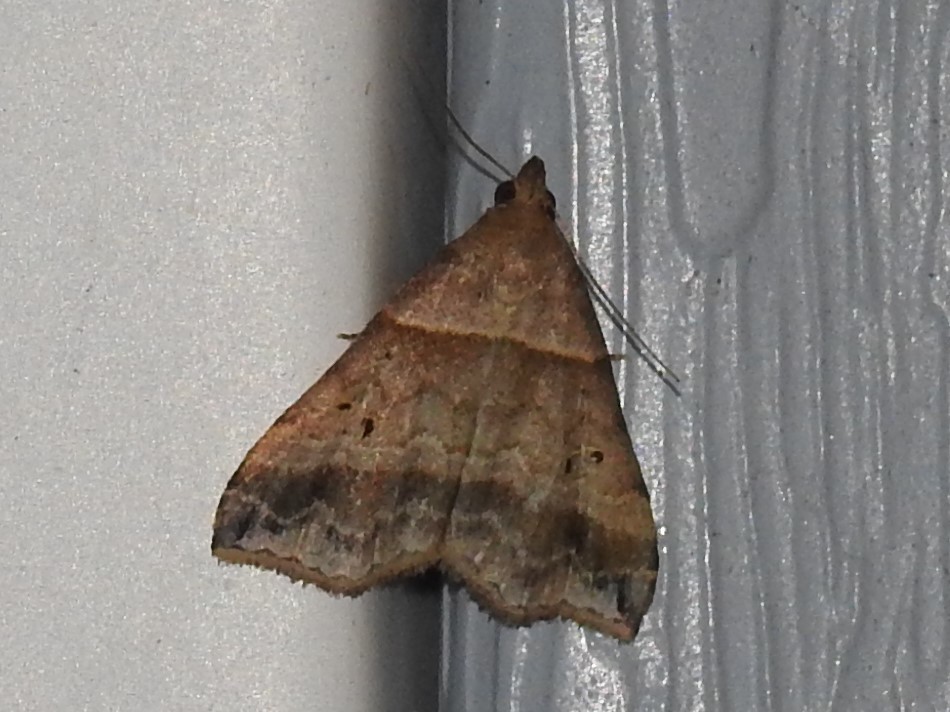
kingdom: Animalia
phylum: Arthropoda
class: Insecta
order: Lepidoptera
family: Erebidae
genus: Phaeolita
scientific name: Phaeolita pyramusalis
